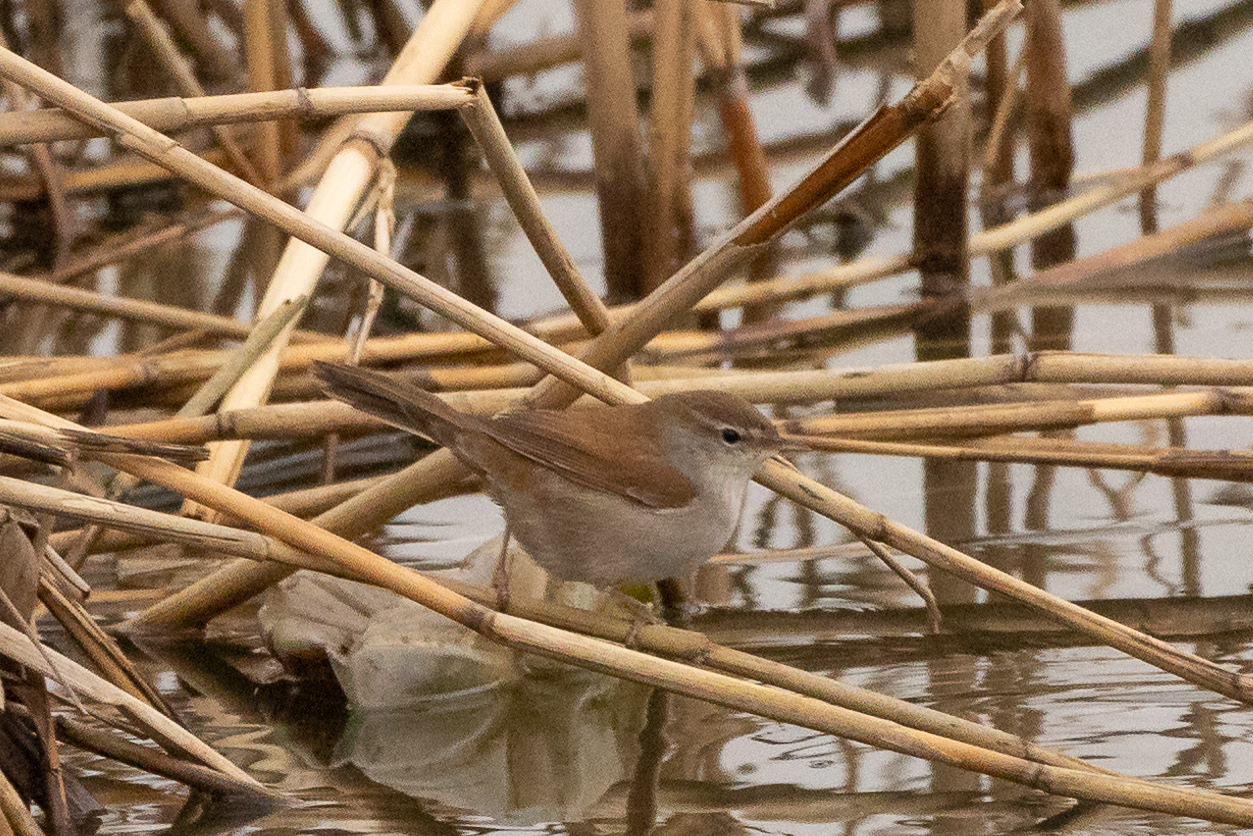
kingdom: Animalia
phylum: Chordata
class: Aves
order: Passeriformes
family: Cettiidae
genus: Cettia
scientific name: Cettia cetti
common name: Cetti's warbler
